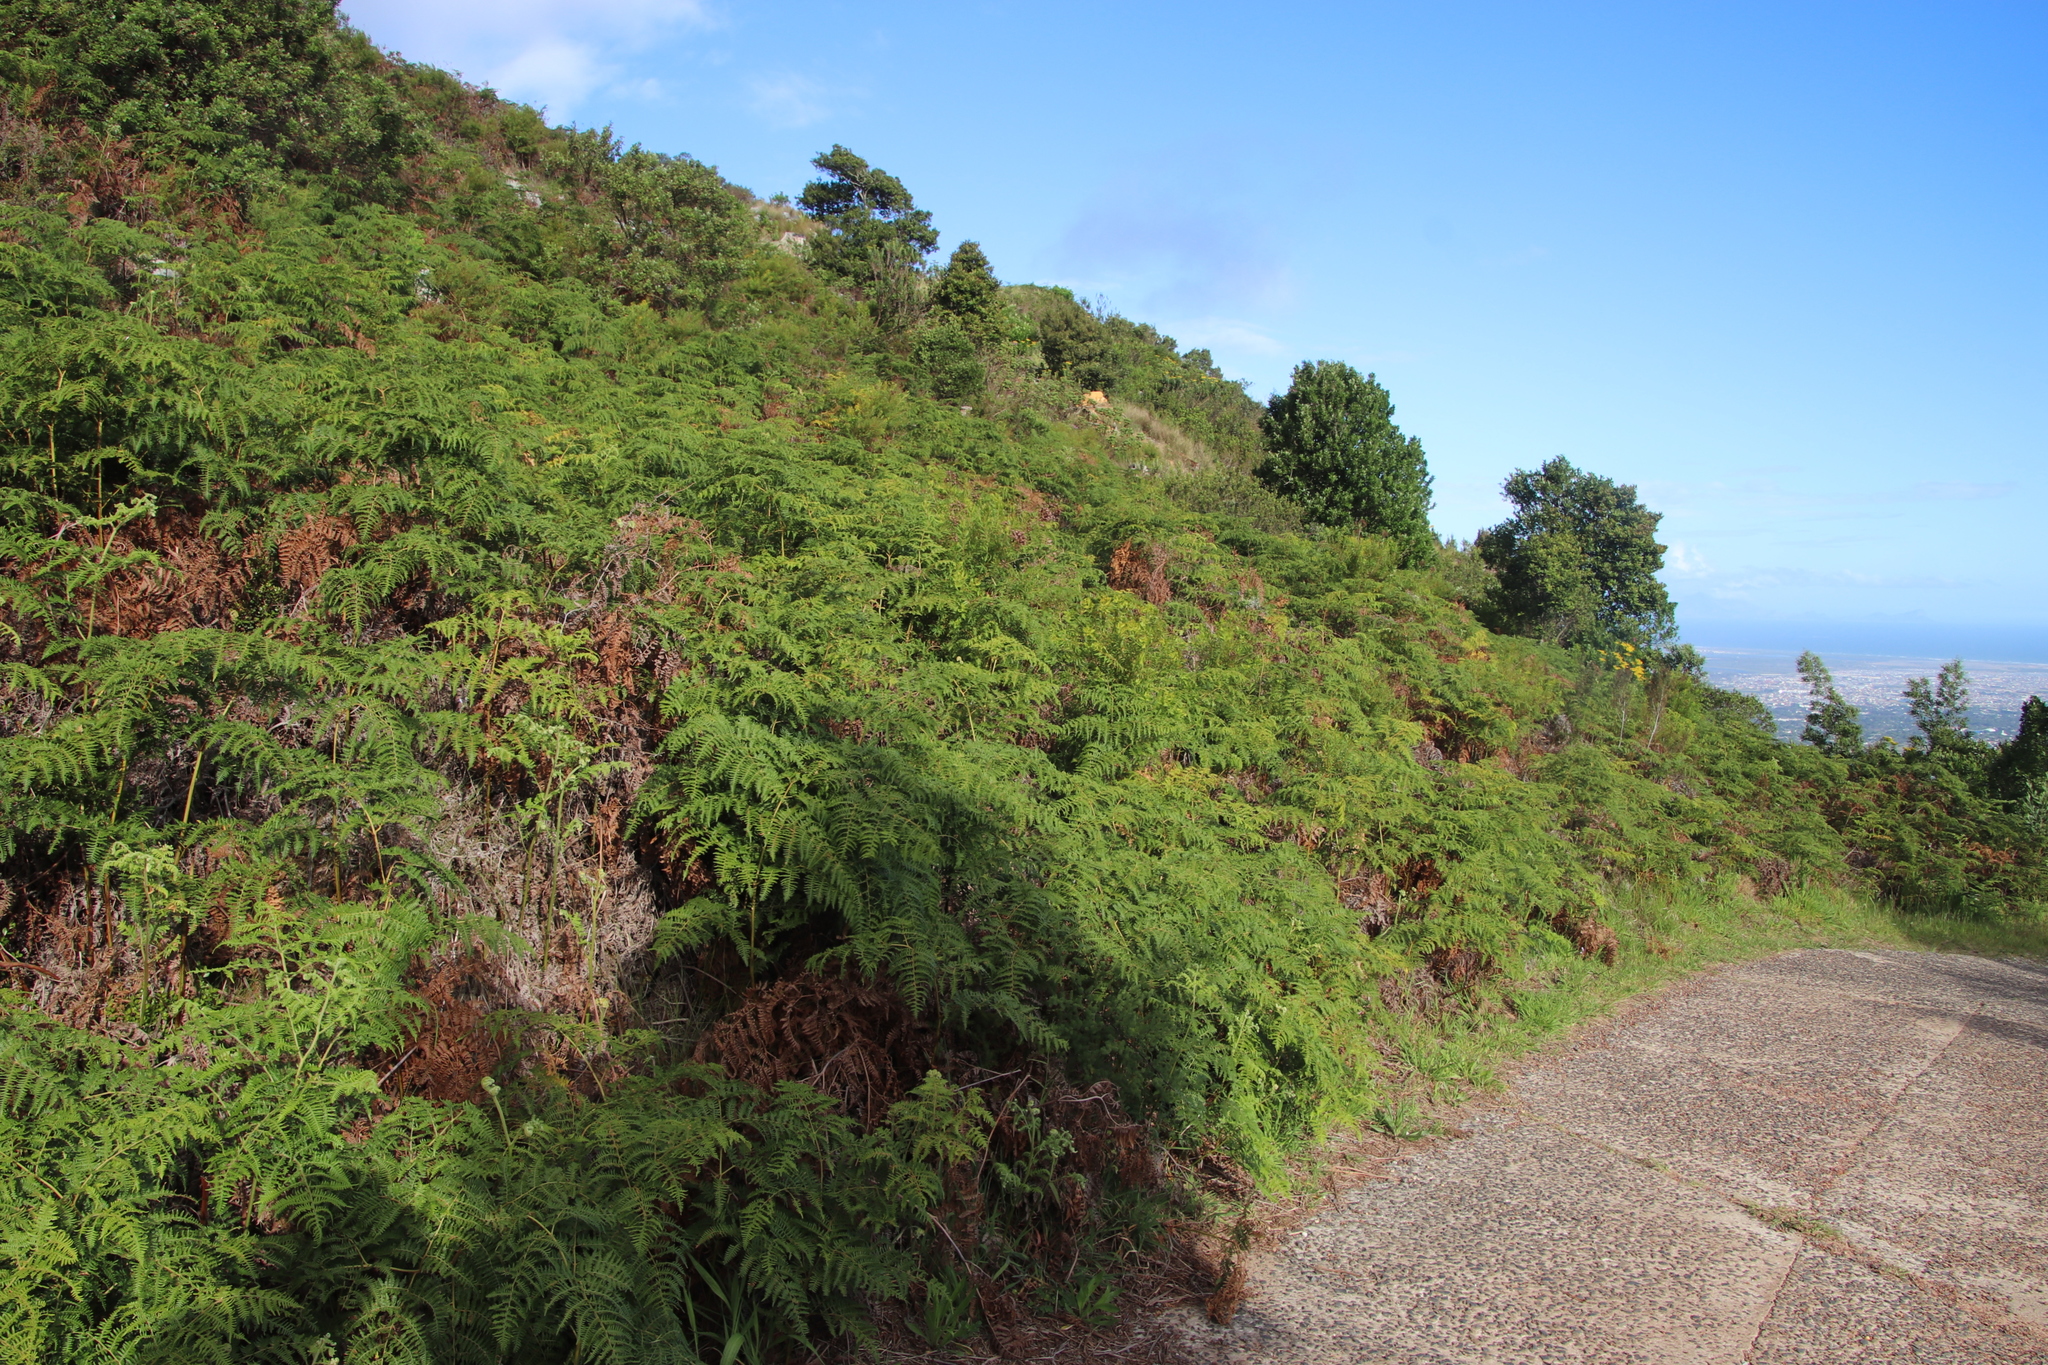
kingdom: Plantae
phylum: Tracheophyta
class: Polypodiopsida
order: Polypodiales
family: Dennstaedtiaceae
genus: Pteridium
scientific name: Pteridium aquilinum
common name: Bracken
